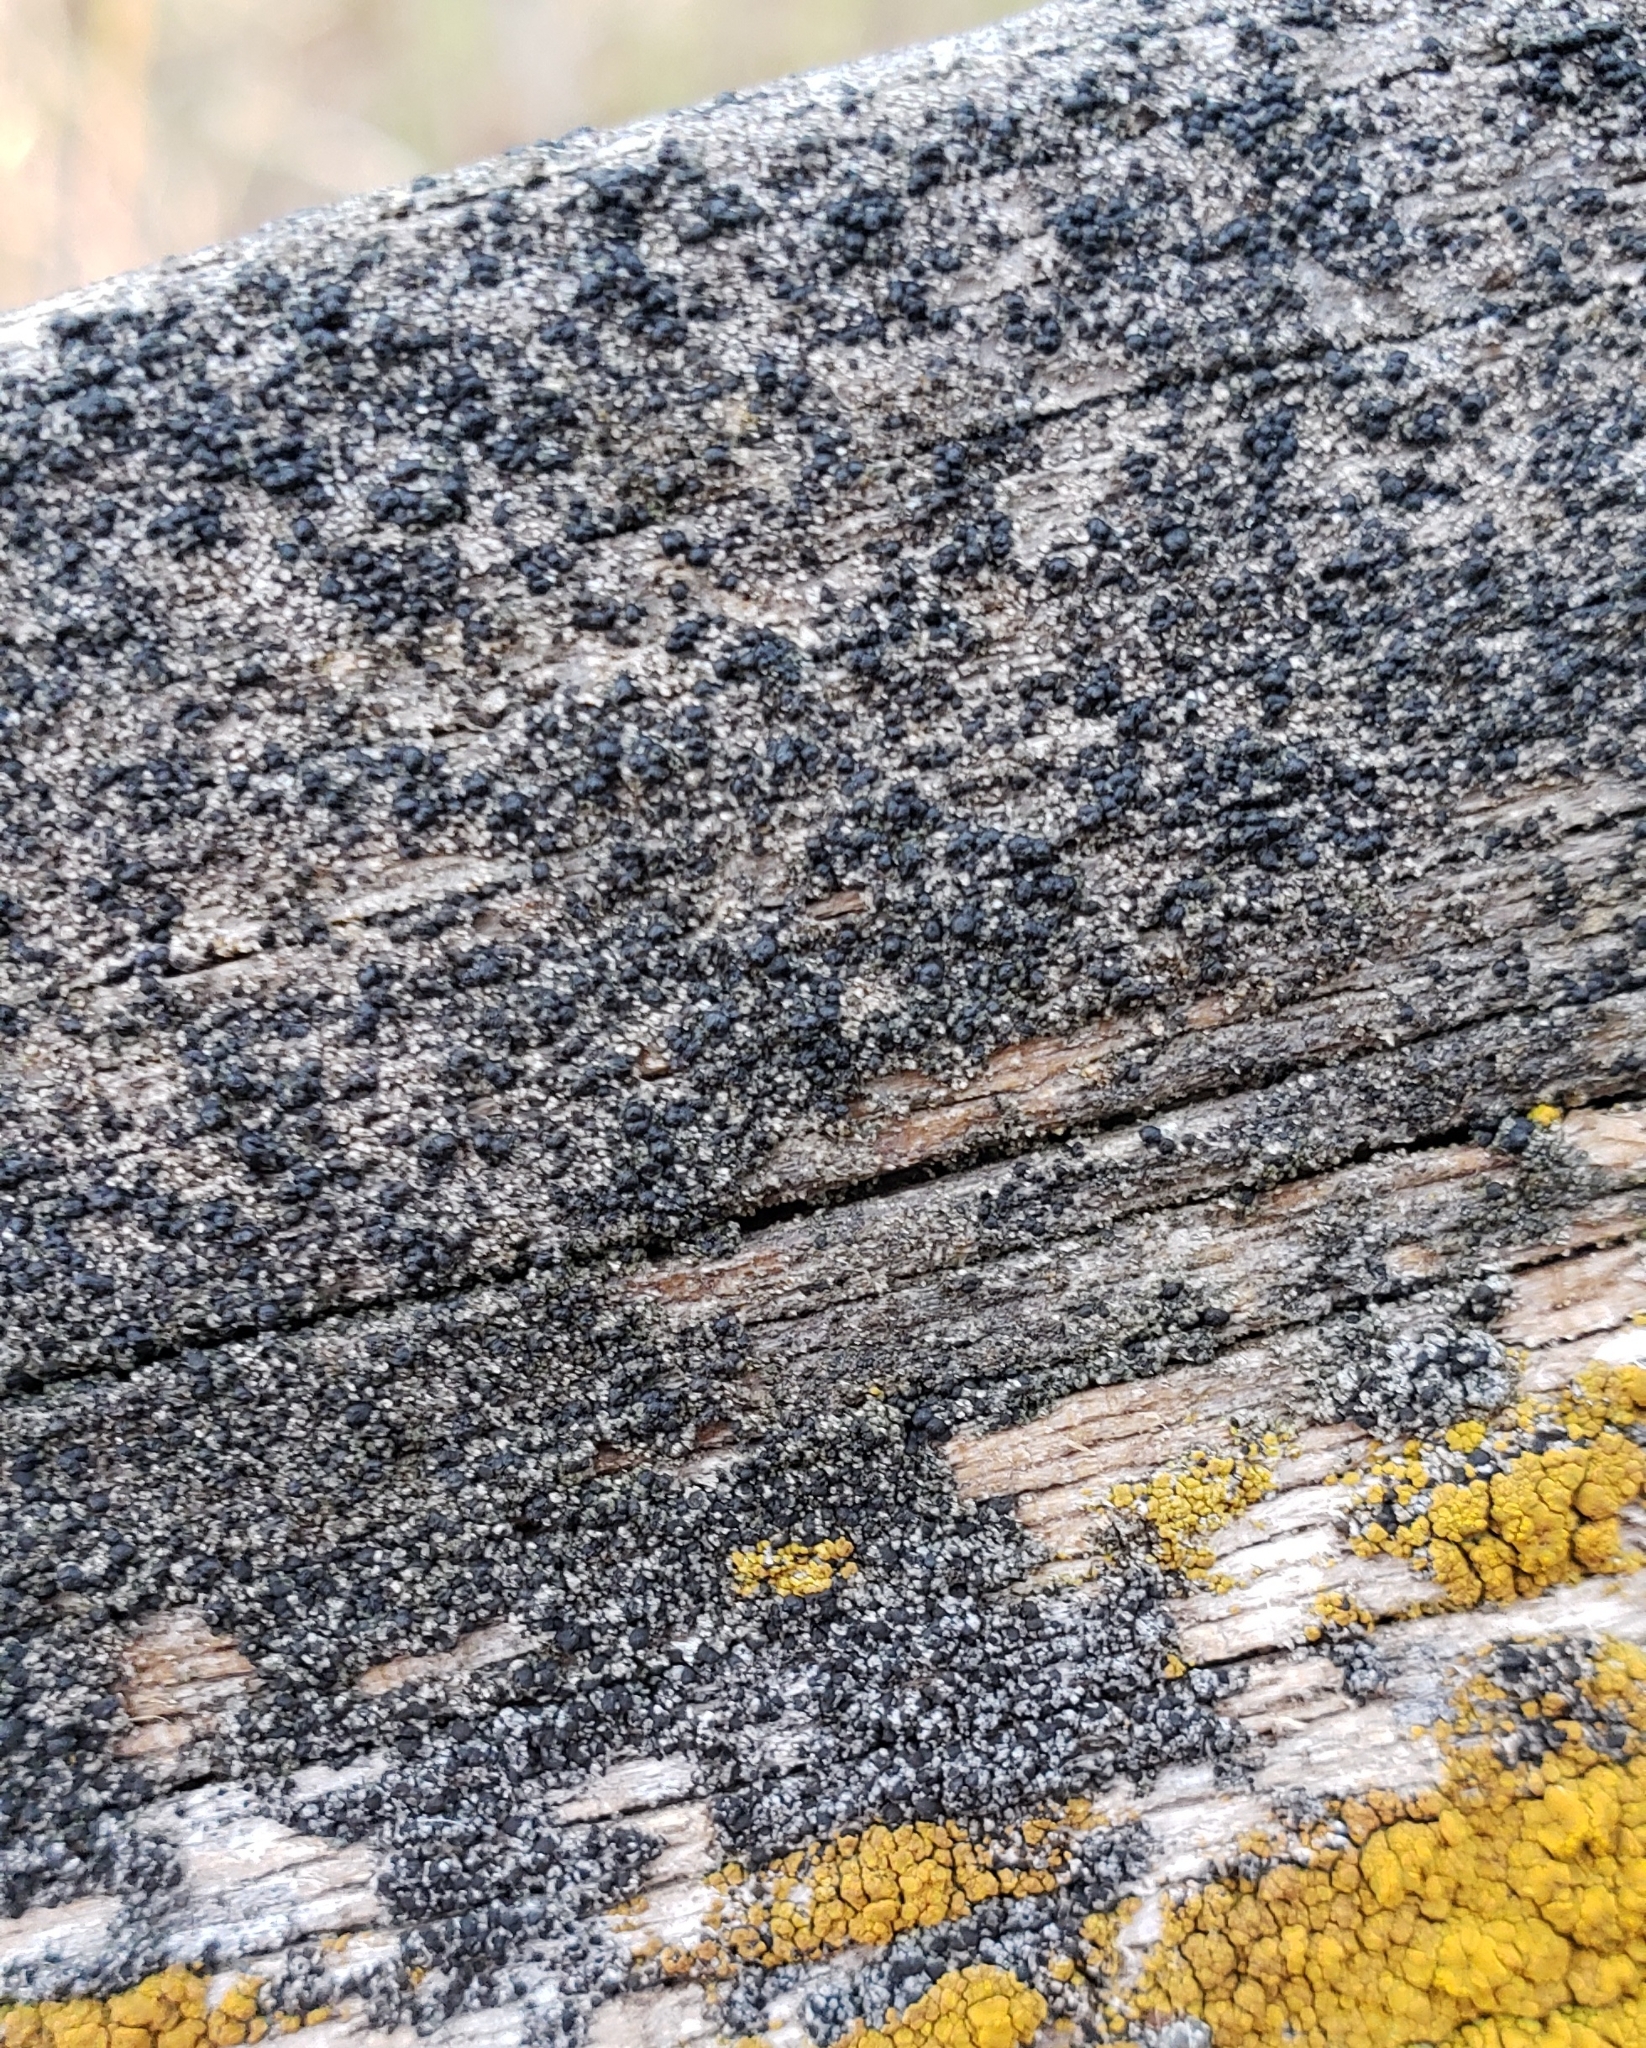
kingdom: Fungi
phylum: Ascomycota
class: Lecanoromycetes
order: Baeomycetales
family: Trapeliaceae
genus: Trapeliopsis
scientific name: Trapeliopsis flexuosa
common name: Board lichen
